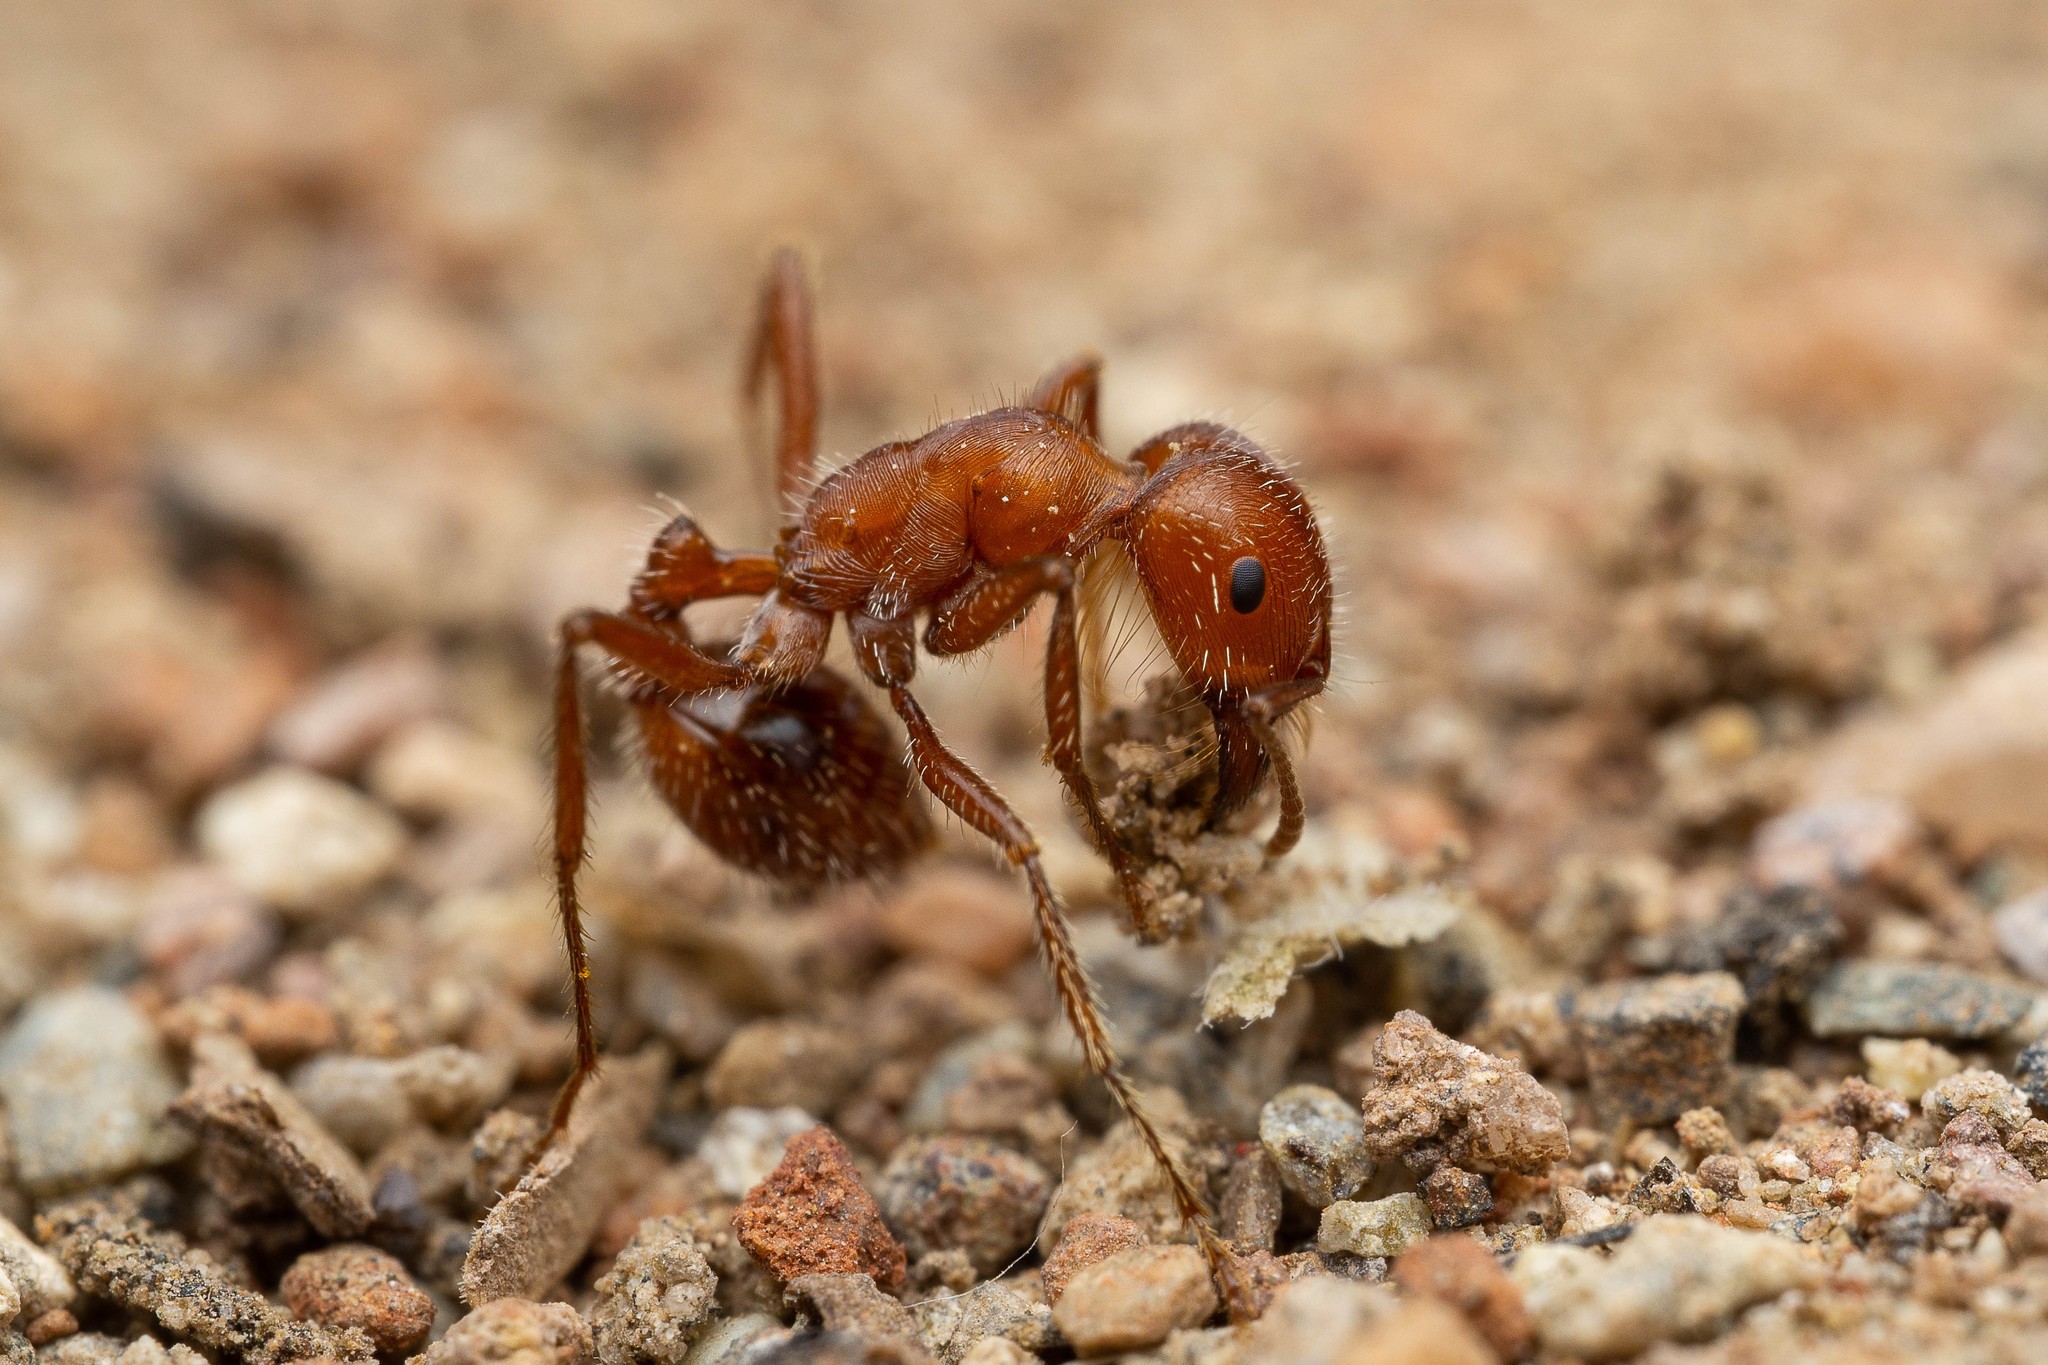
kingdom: Animalia
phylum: Arthropoda
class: Insecta
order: Hymenoptera
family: Formicidae
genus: Pogonomyrmex
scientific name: Pogonomyrmex maricopa
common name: Maricopa harvester ant
